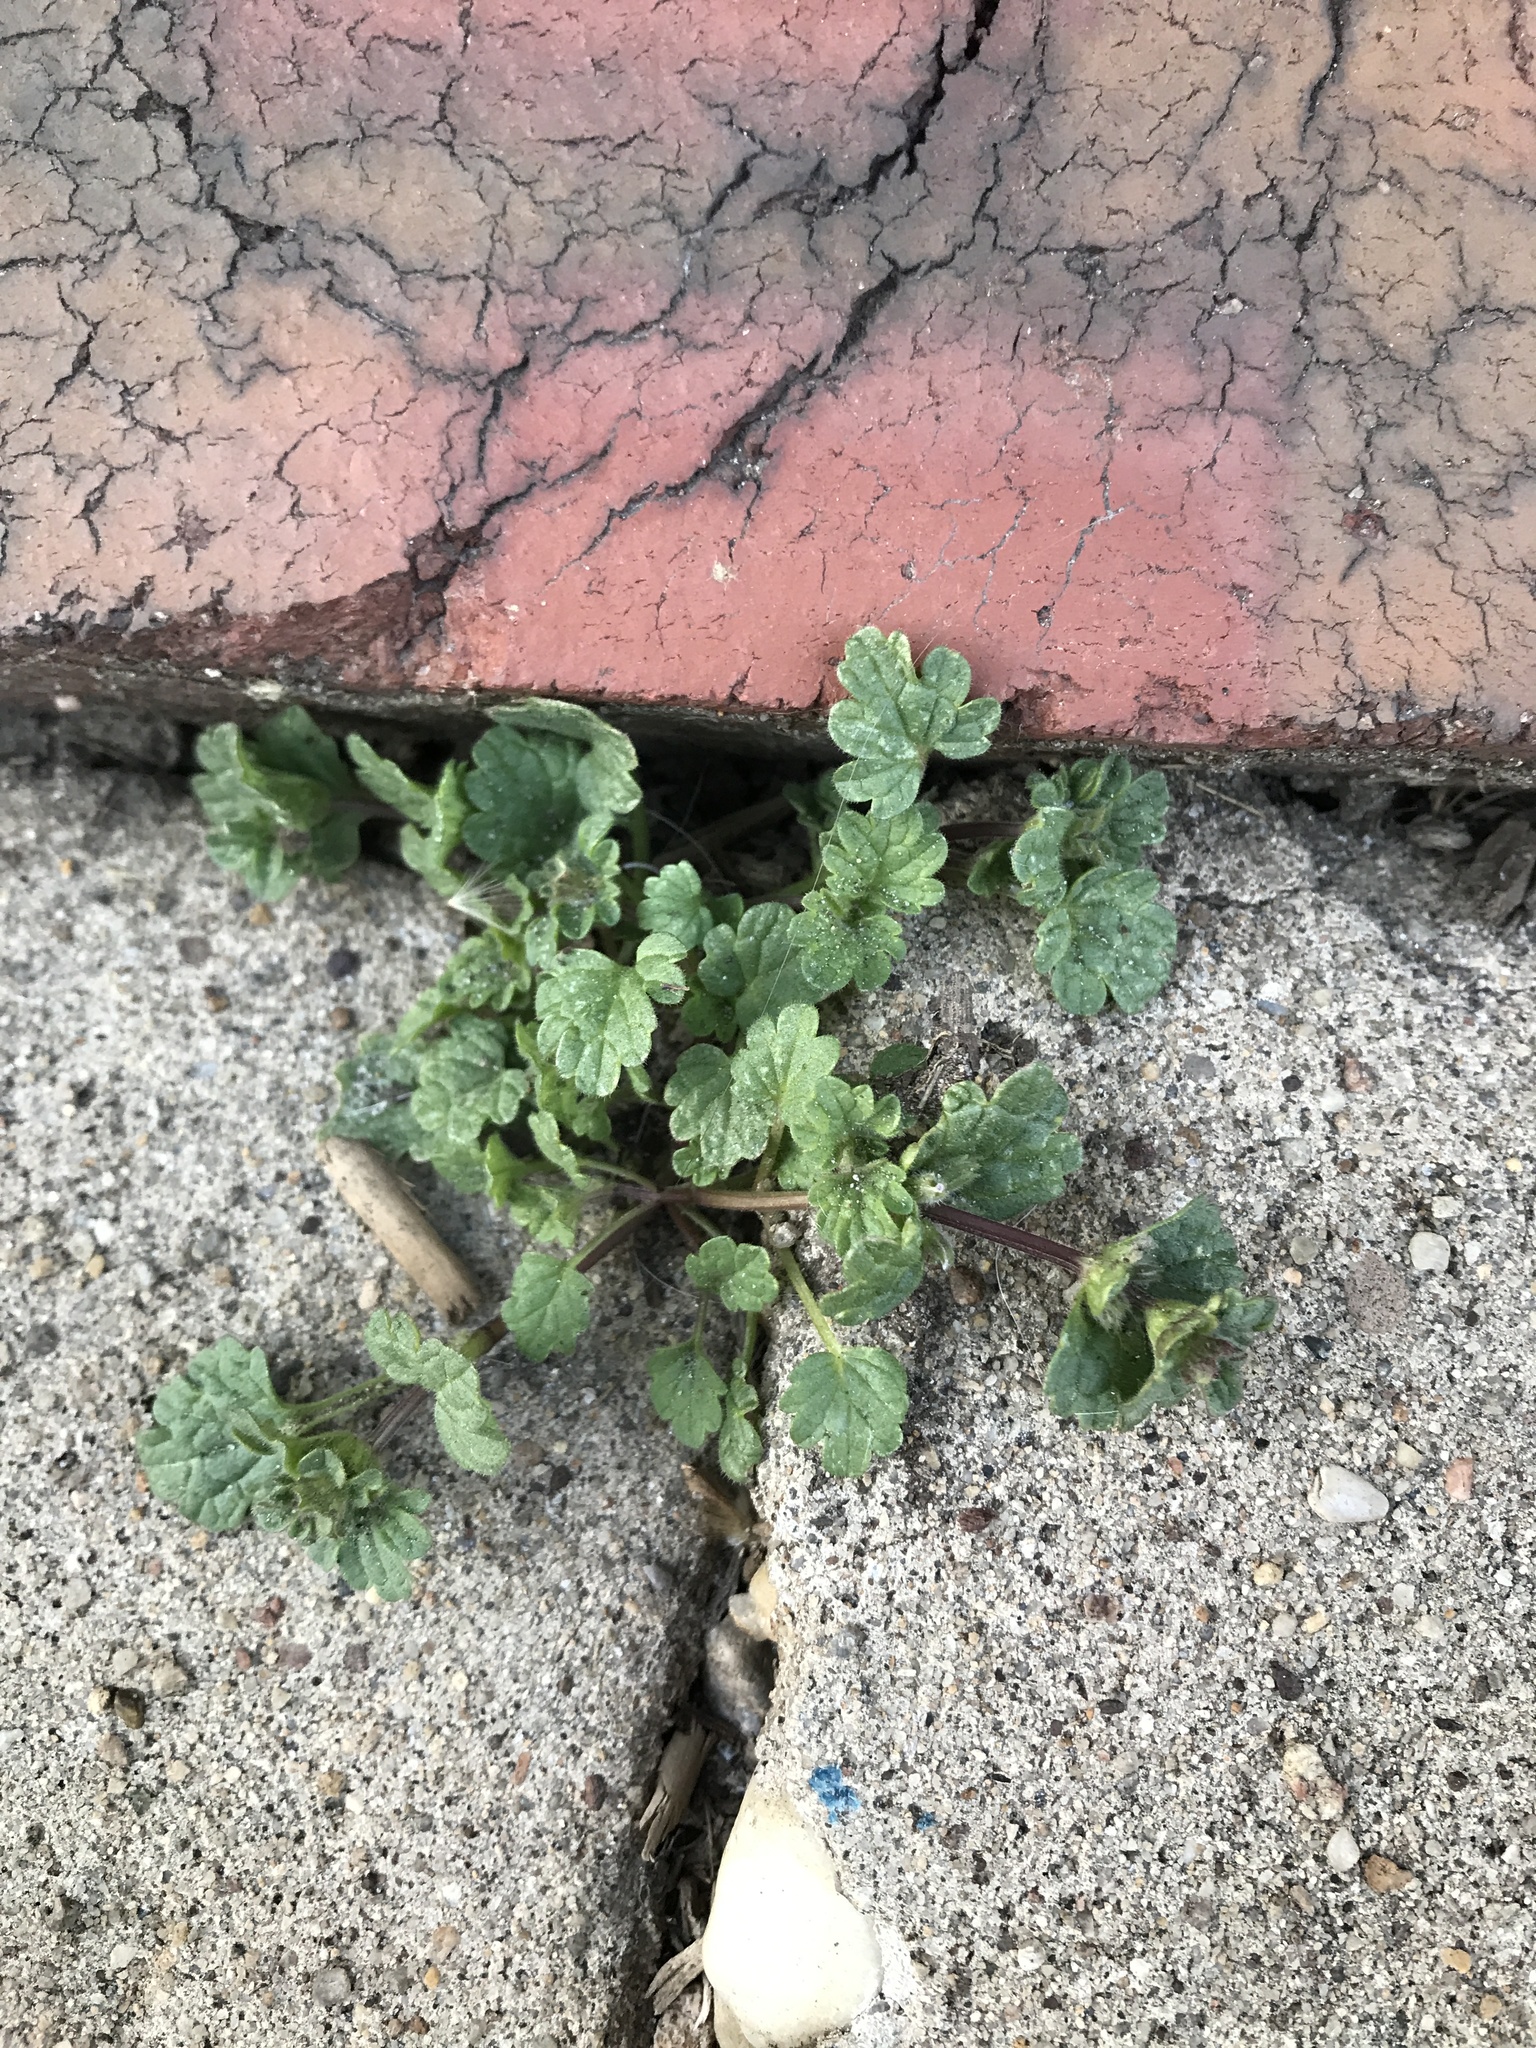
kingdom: Plantae
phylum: Tracheophyta
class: Magnoliopsida
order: Lamiales
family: Lamiaceae
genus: Lamium
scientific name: Lamium amplexicaule
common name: Henbit dead-nettle
